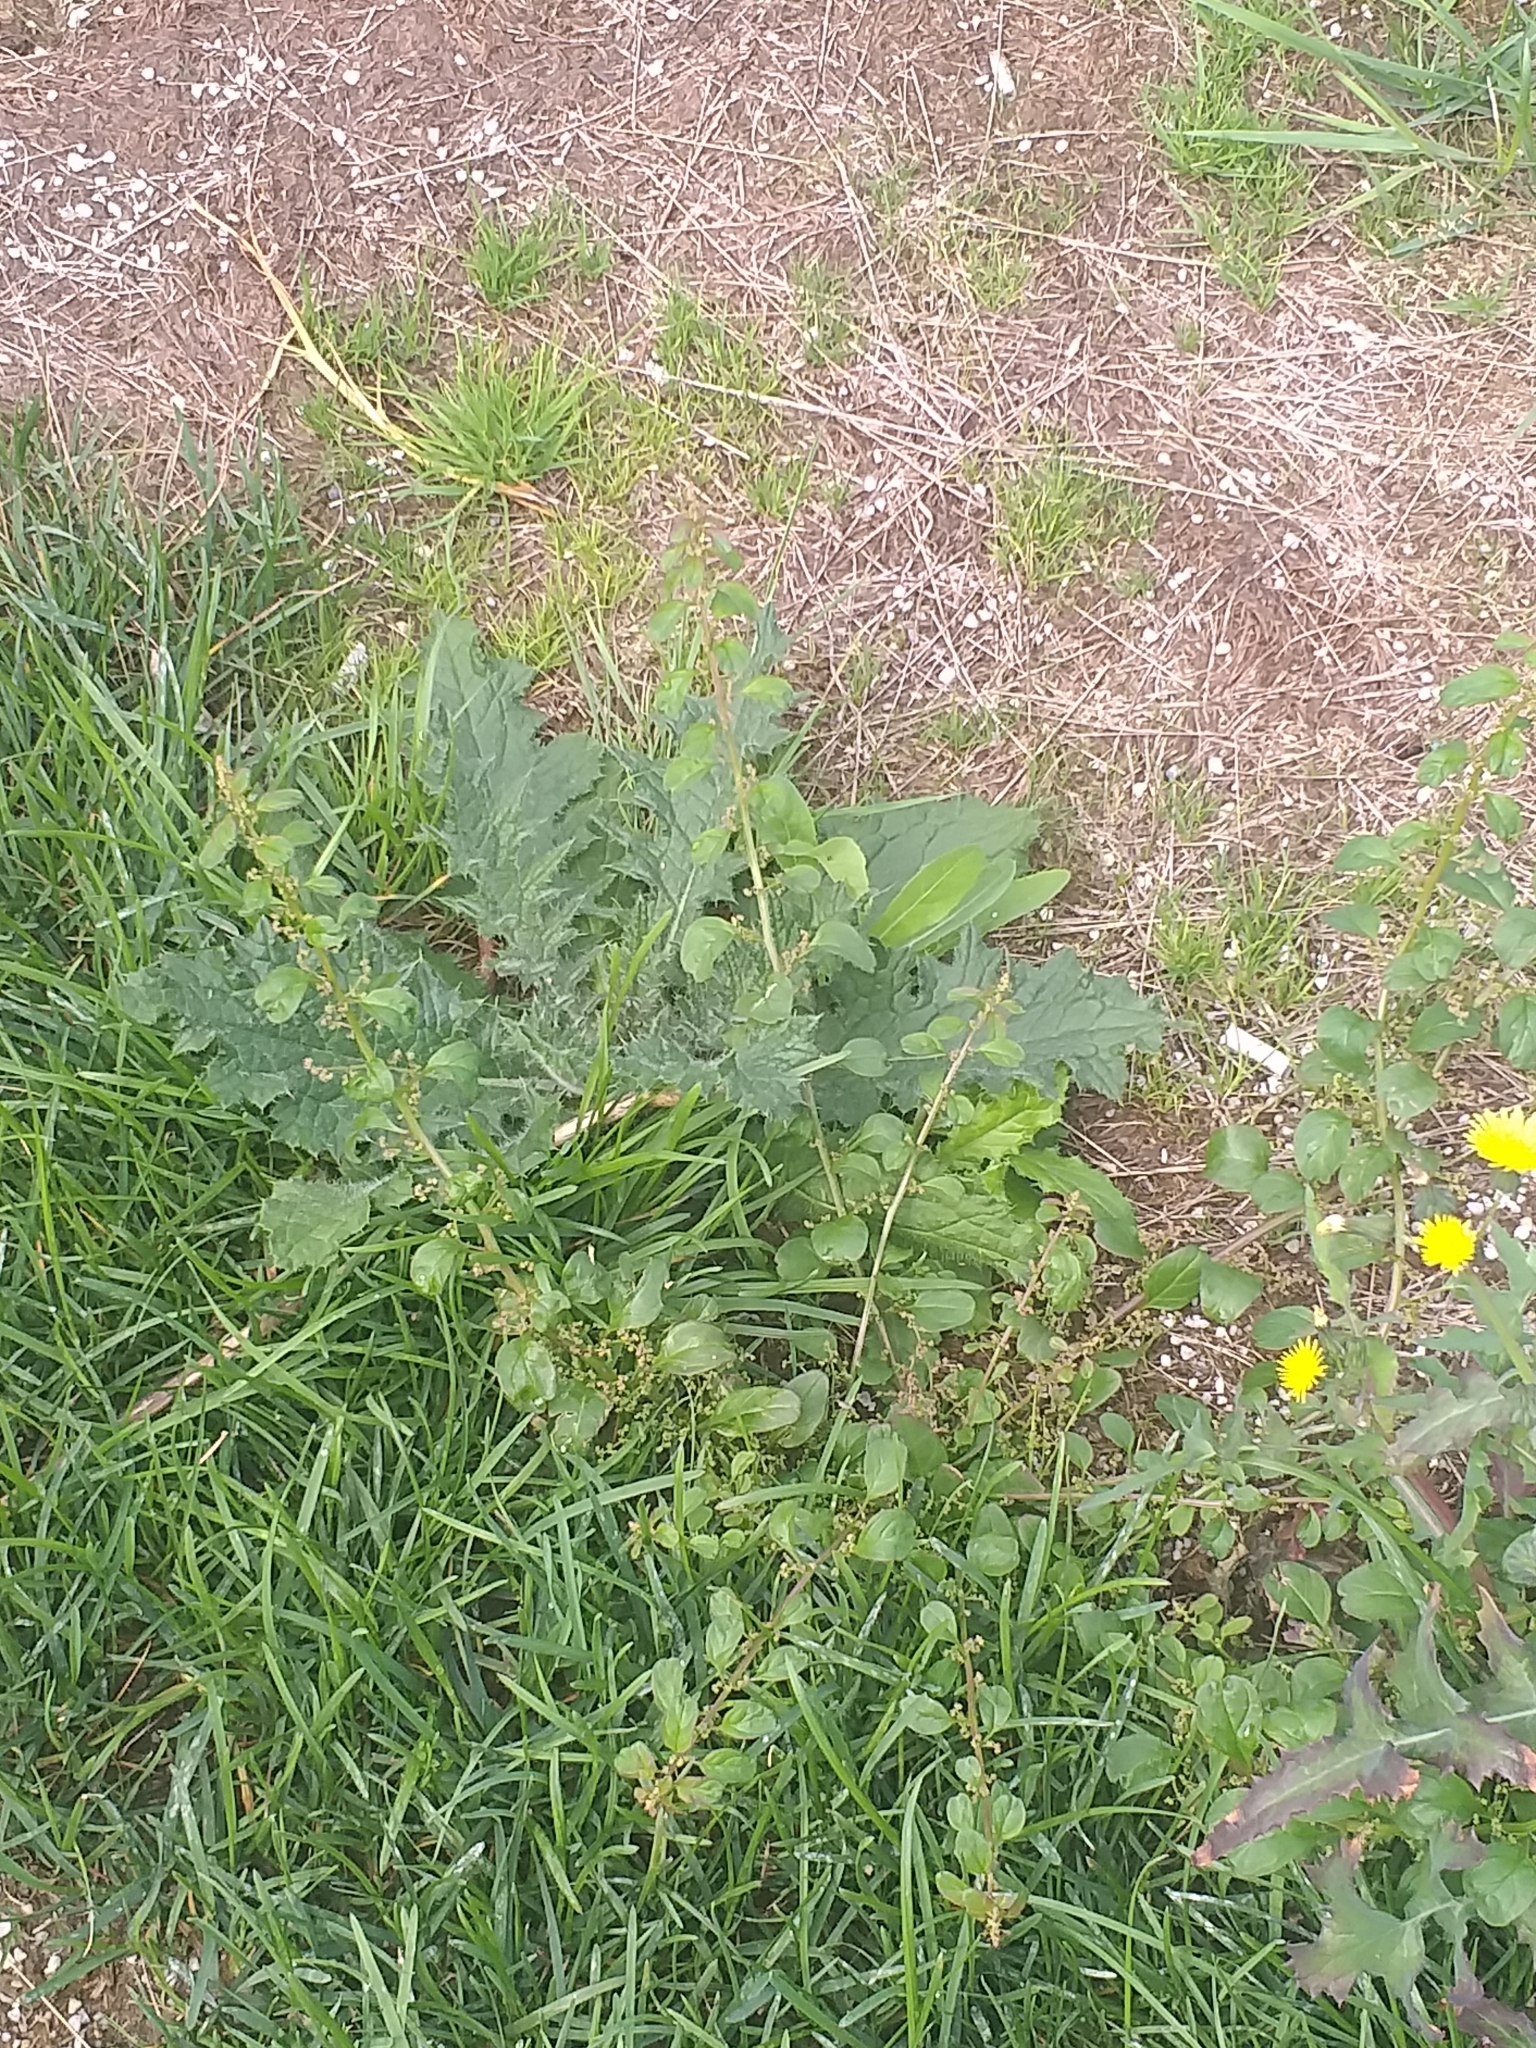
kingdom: Plantae
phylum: Tracheophyta
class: Magnoliopsida
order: Caryophyllales
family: Amaranthaceae
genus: Lipandra
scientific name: Lipandra polysperma
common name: Many-seed goosefoot
